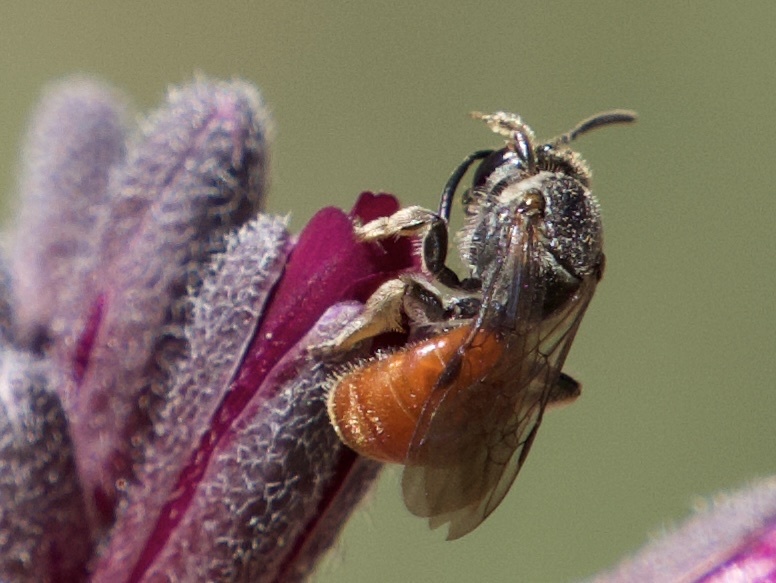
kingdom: Animalia
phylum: Arthropoda
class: Insecta
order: Hymenoptera
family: Halictidae
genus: Lasioglossum
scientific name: Lasioglossum ovaliceps
